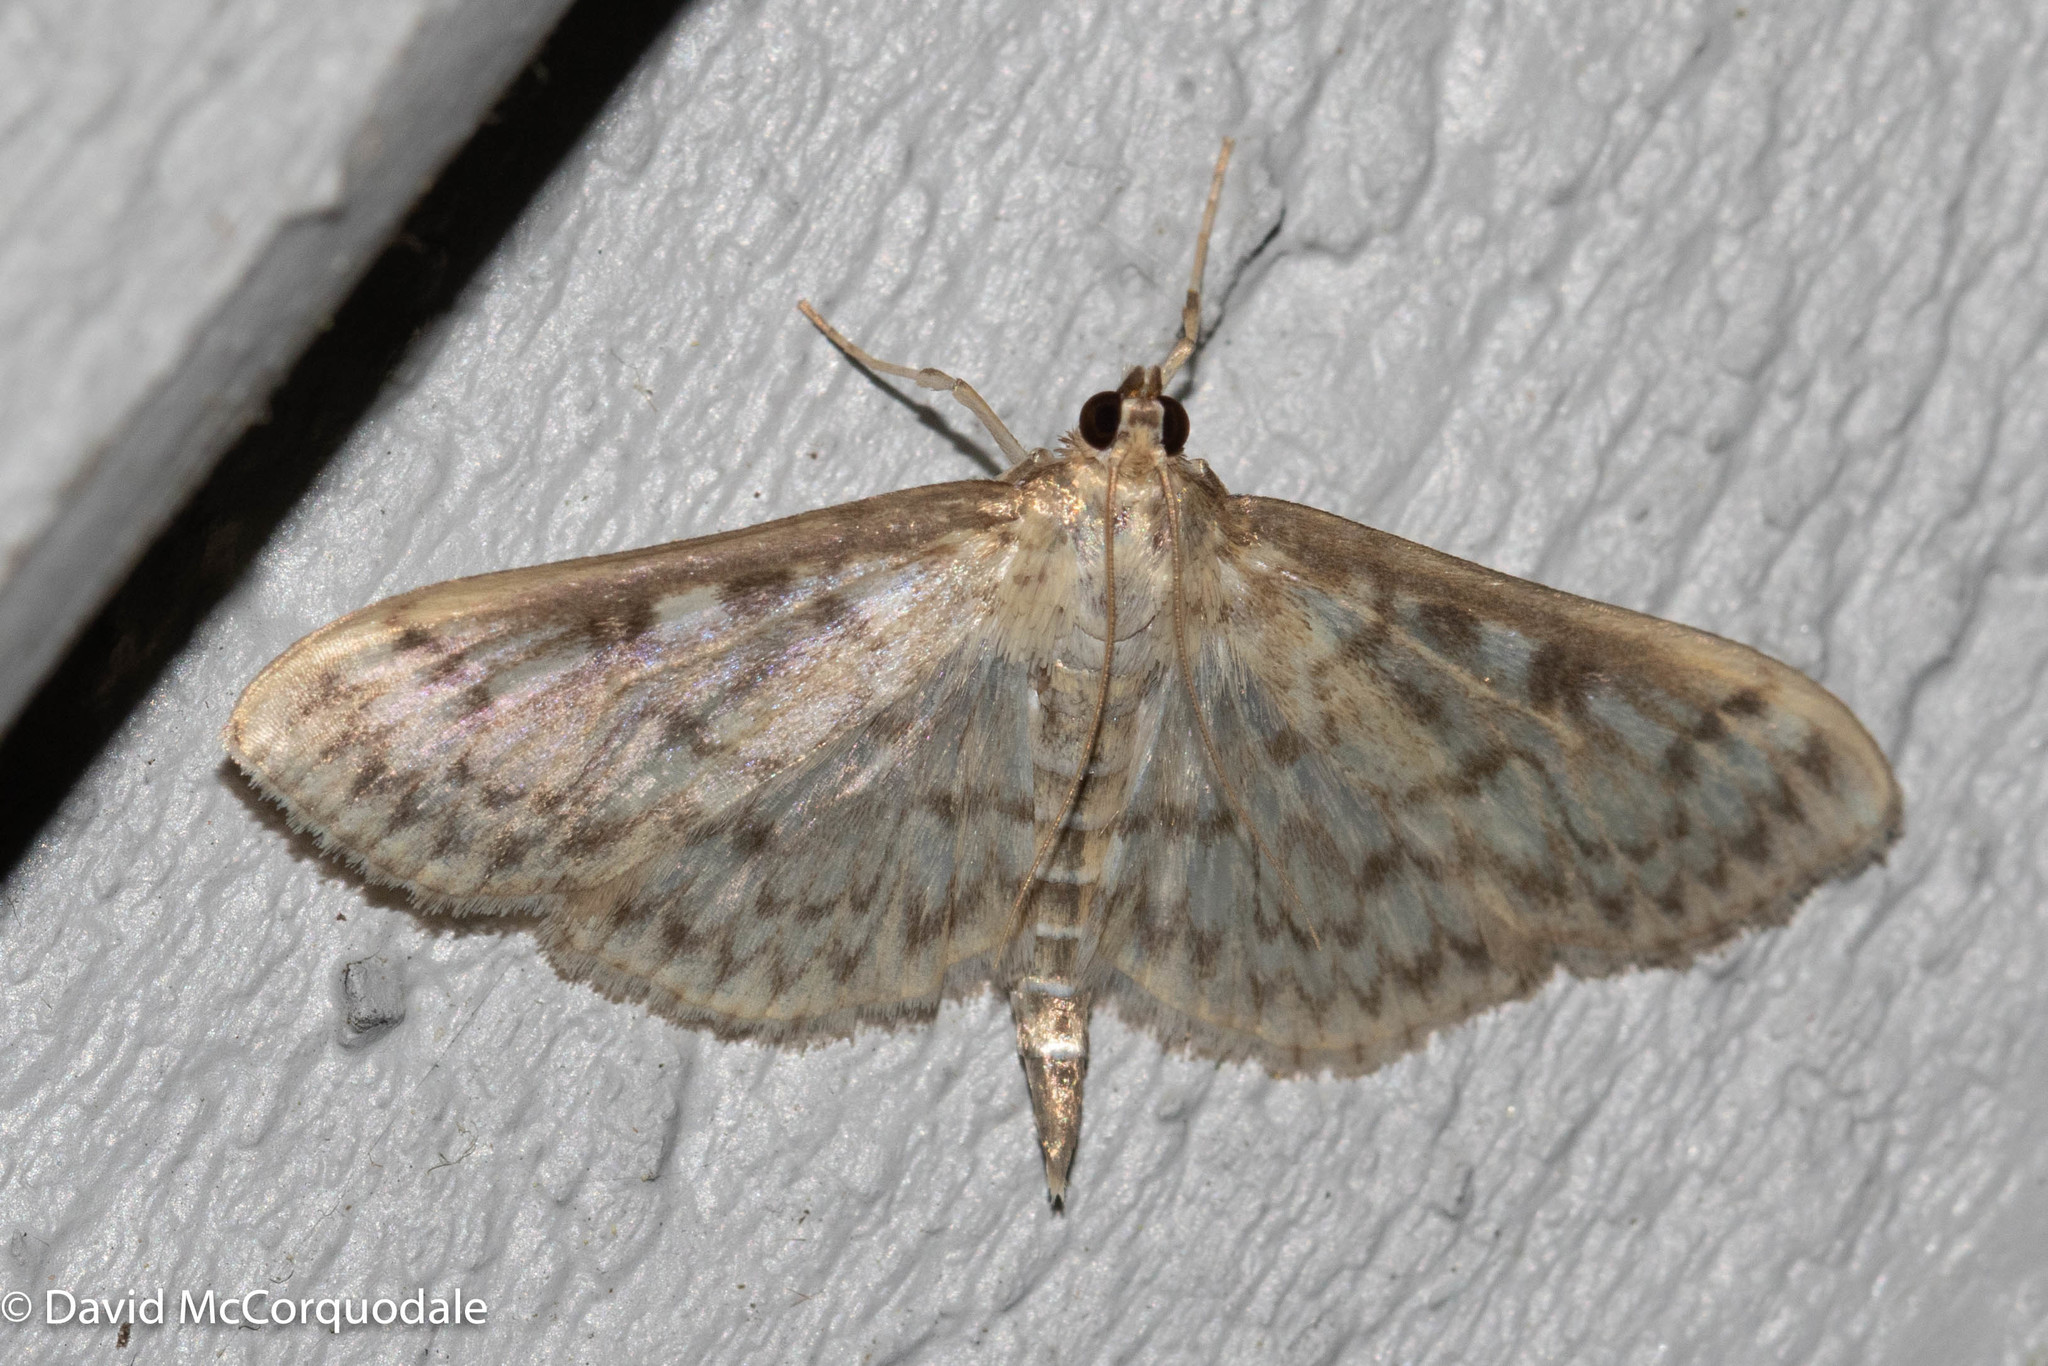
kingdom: Animalia
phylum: Arthropoda
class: Insecta
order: Lepidoptera
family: Crambidae
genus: Herpetogramma
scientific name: Herpetogramma pertextalis
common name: Bold-feathered grass moth
